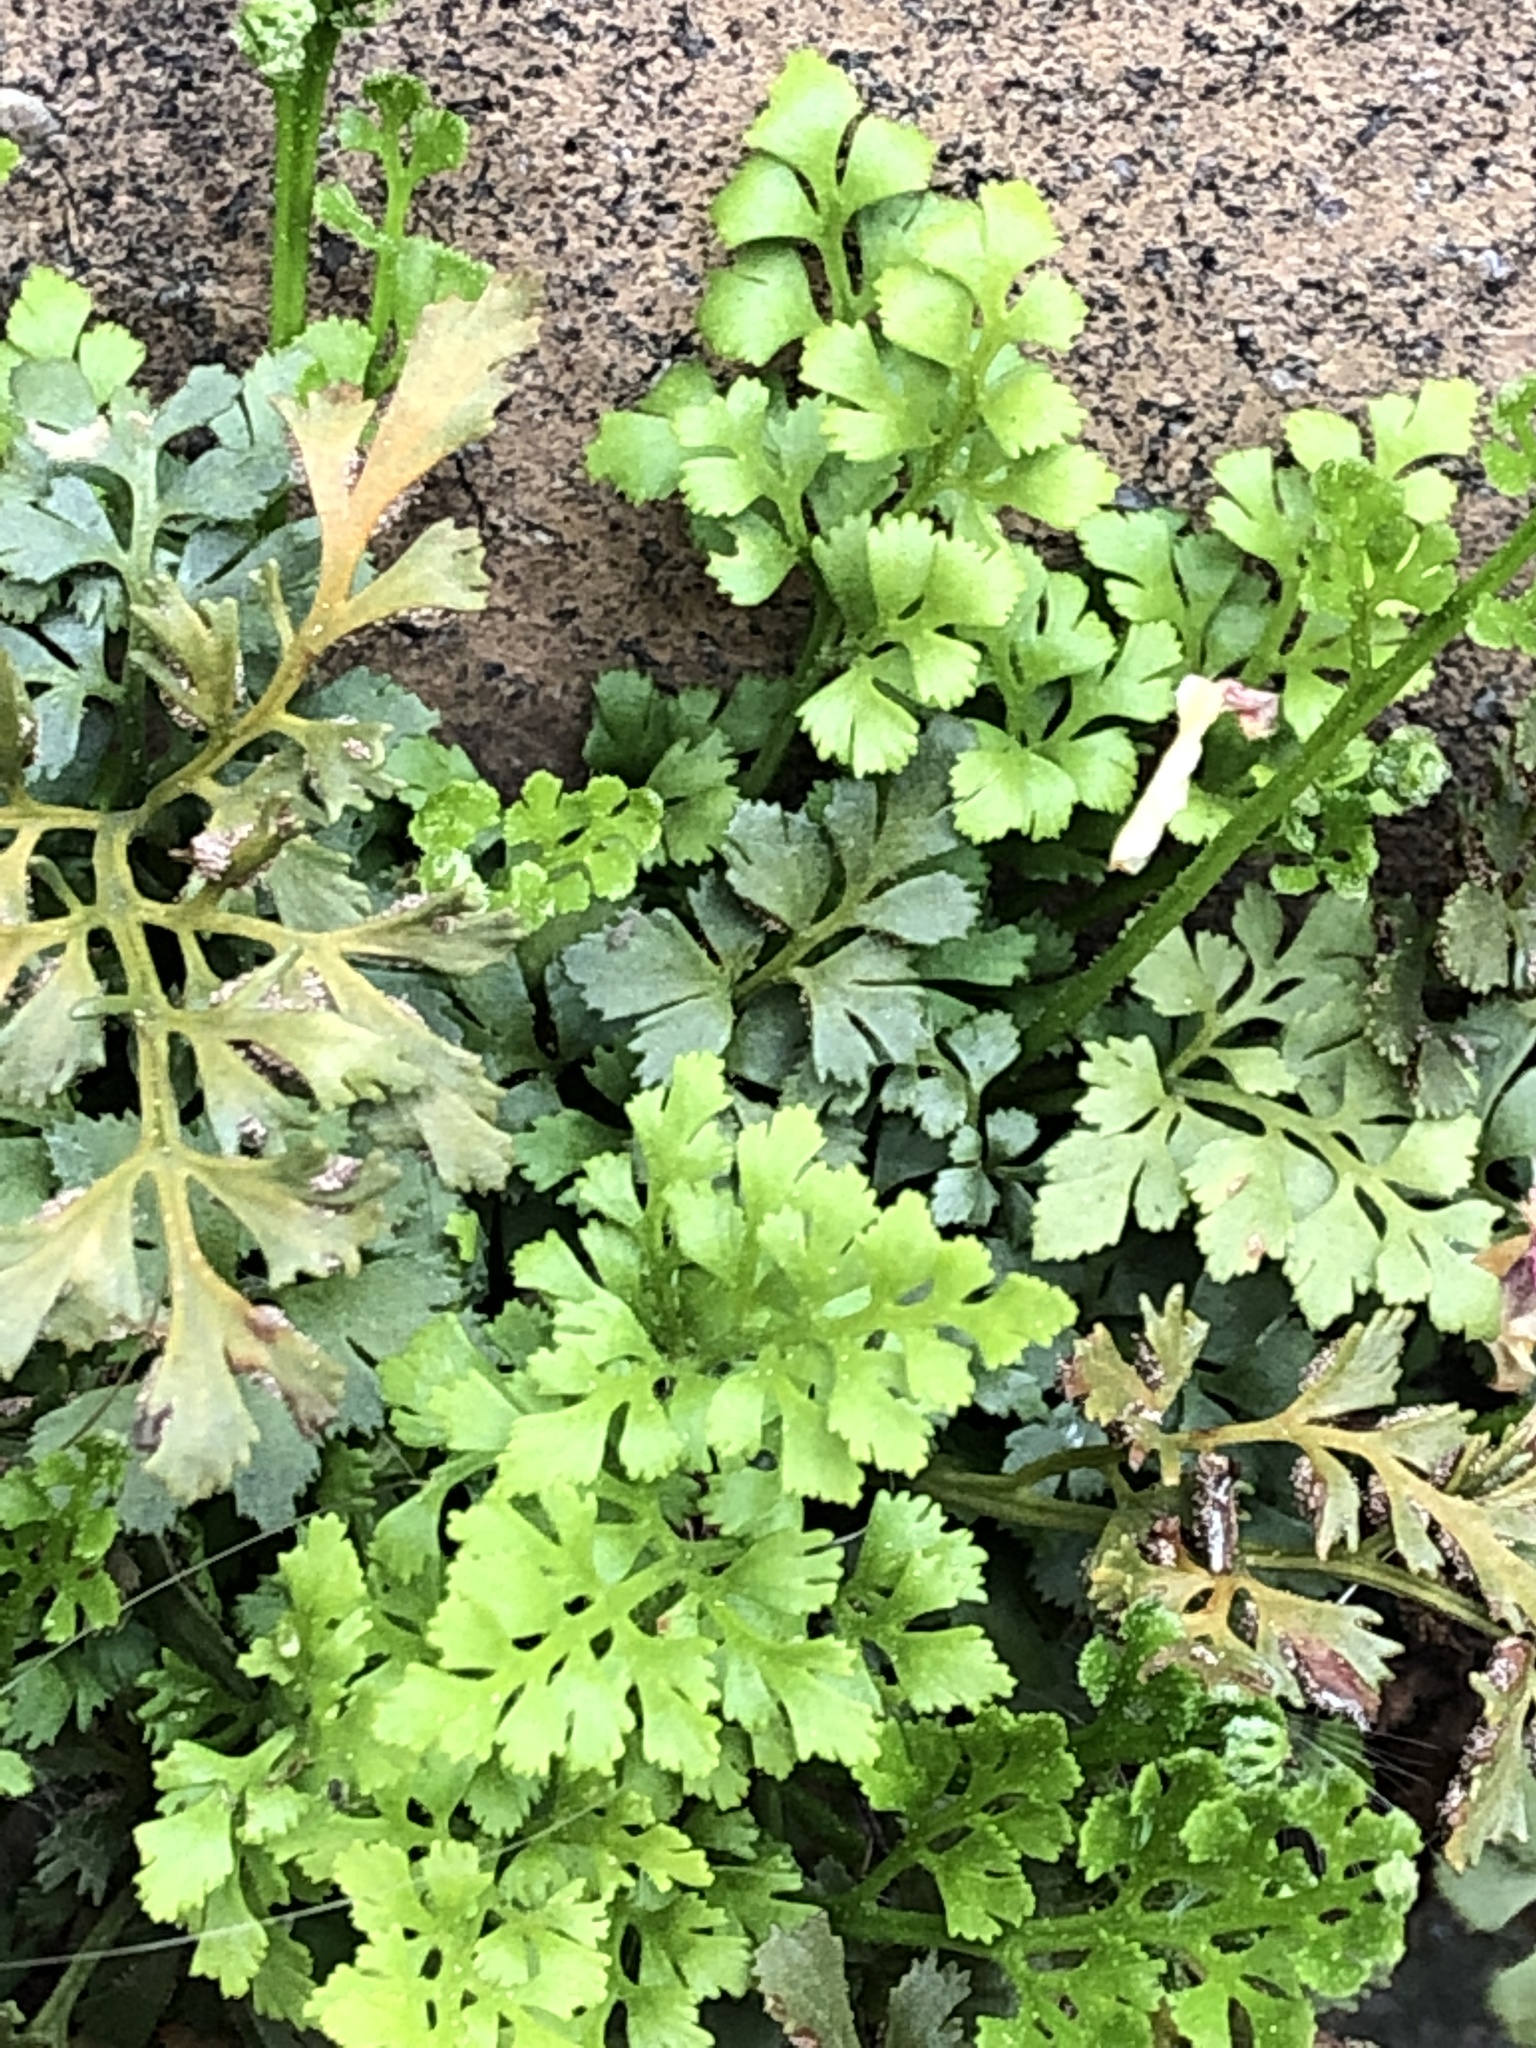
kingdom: Plantae
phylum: Tracheophyta
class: Polypodiopsida
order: Polypodiales
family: Aspleniaceae
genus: Asplenium
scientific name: Asplenium ruta-muraria
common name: Wall-rue
